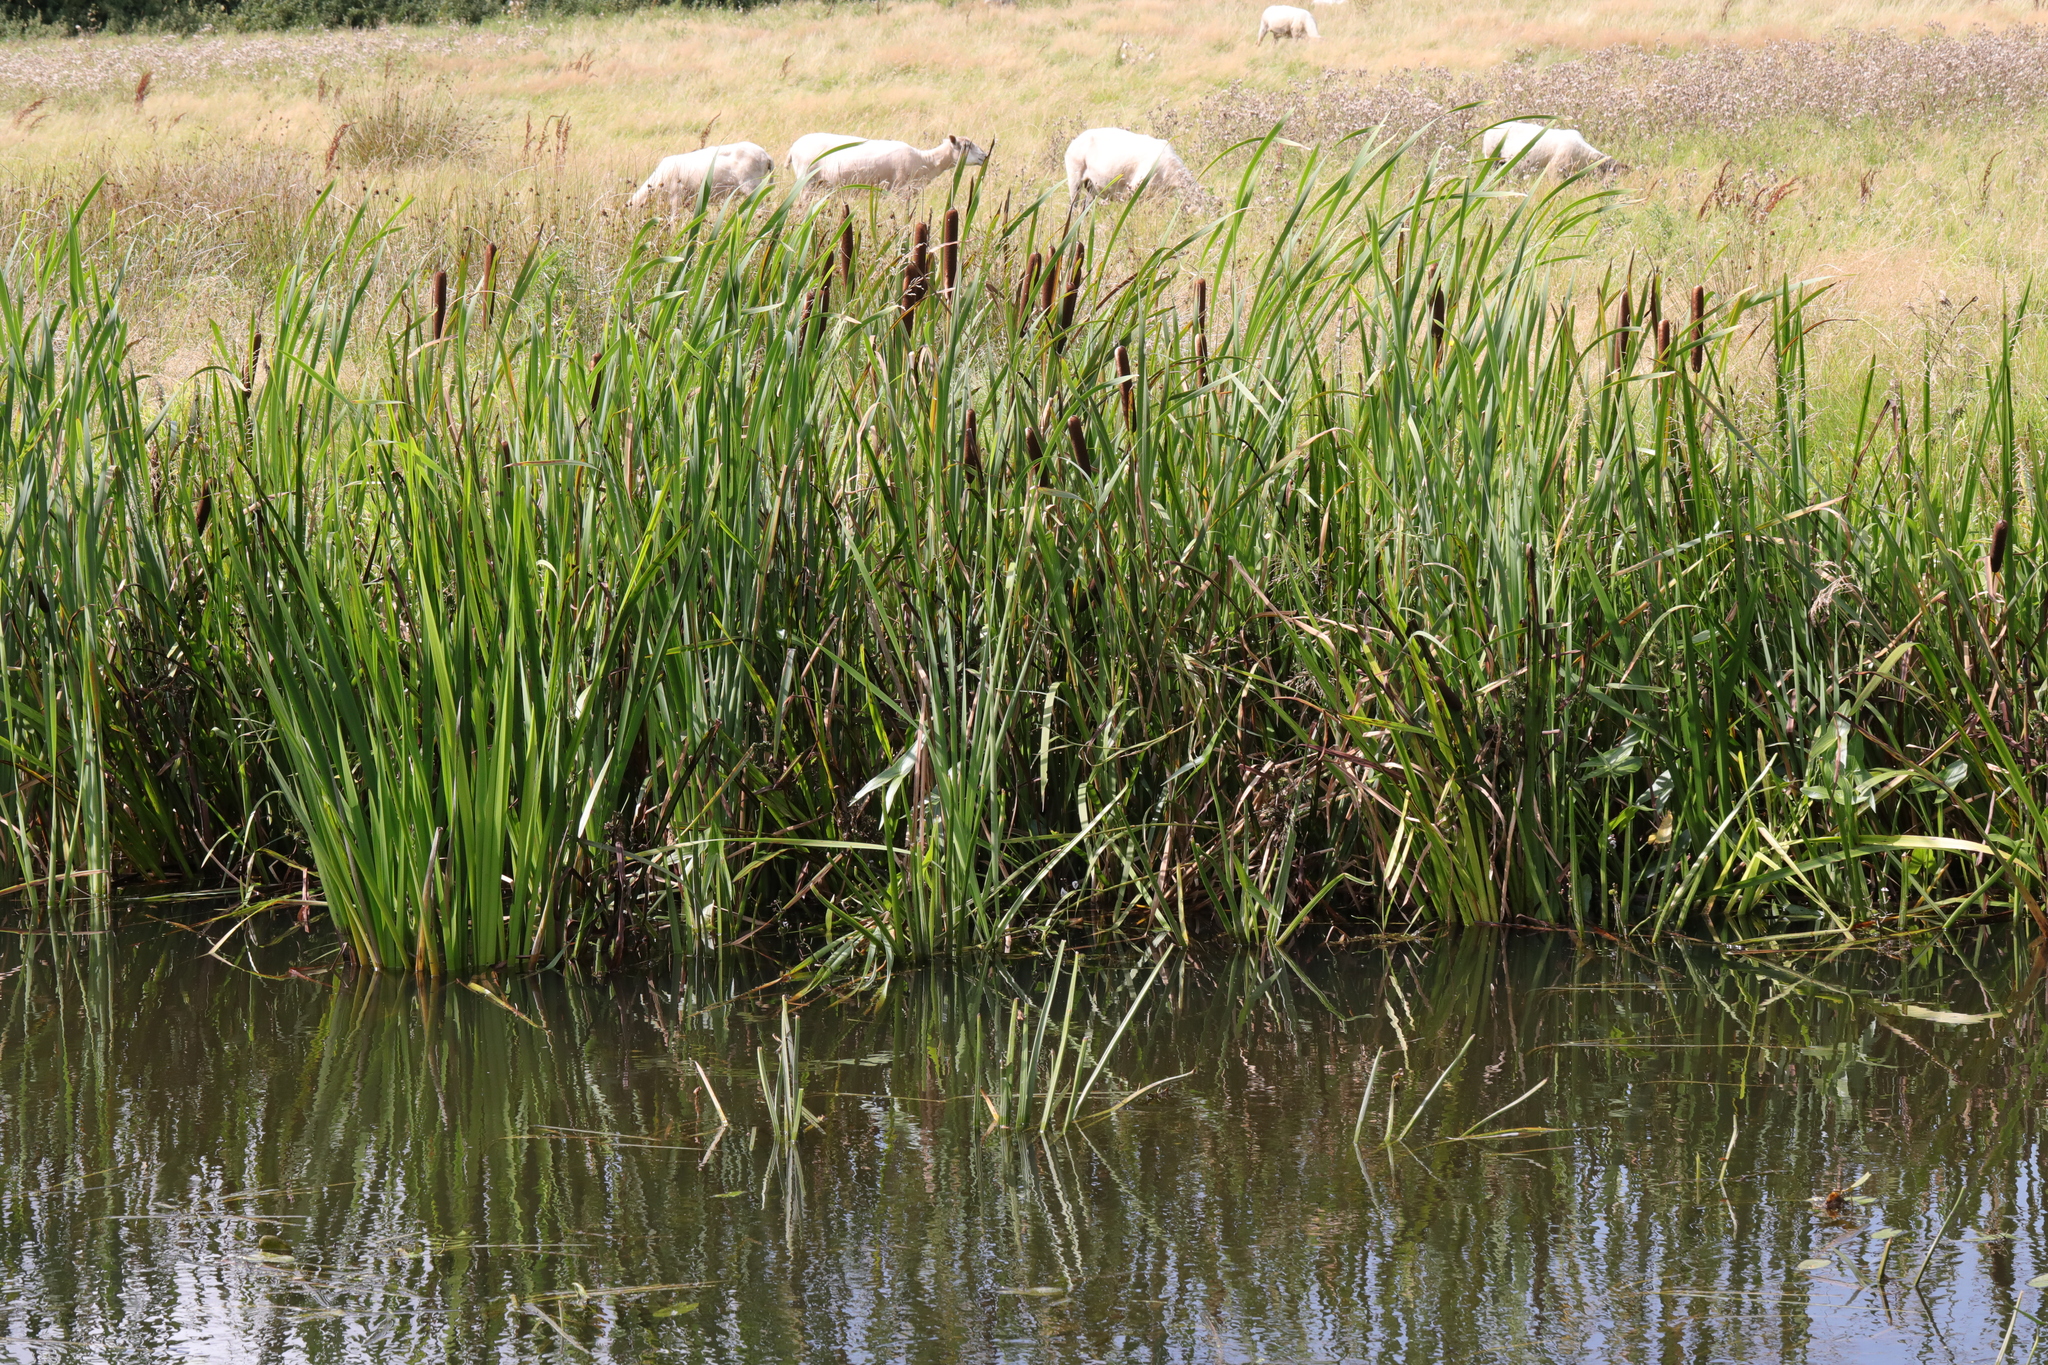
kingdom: Plantae
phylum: Tracheophyta
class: Liliopsida
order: Poales
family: Typhaceae
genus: Typha
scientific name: Typha latifolia
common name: Broadleaf cattail
